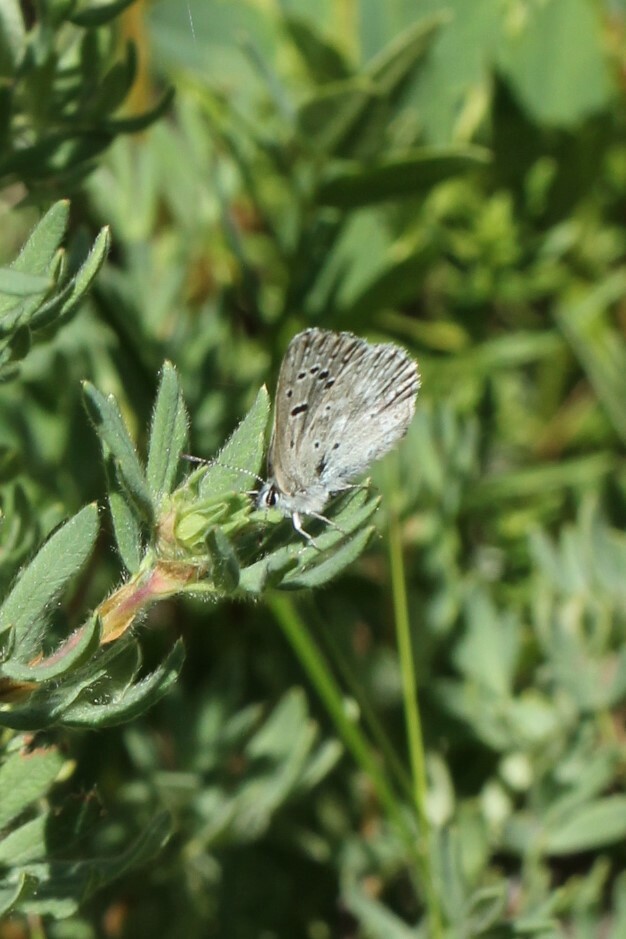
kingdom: Animalia
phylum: Arthropoda
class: Insecta
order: Lepidoptera
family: Lycaenidae
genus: Icaricia
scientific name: Icaricia icarioides
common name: Boisduval's blue
